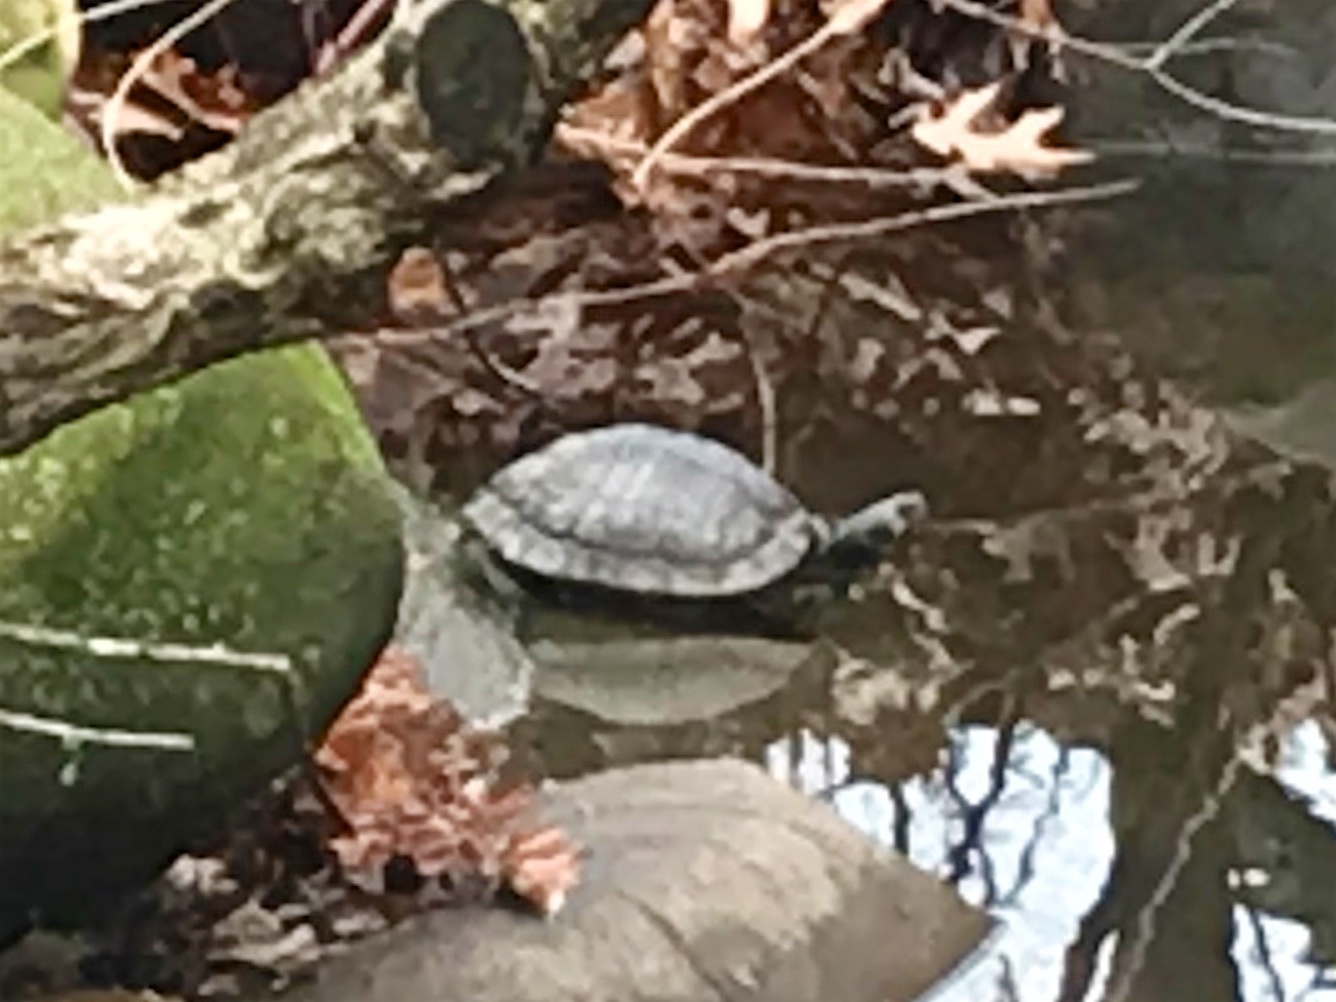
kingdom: Animalia
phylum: Chordata
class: Testudines
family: Emydidae
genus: Trachemys
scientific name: Trachemys scripta
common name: Slider
